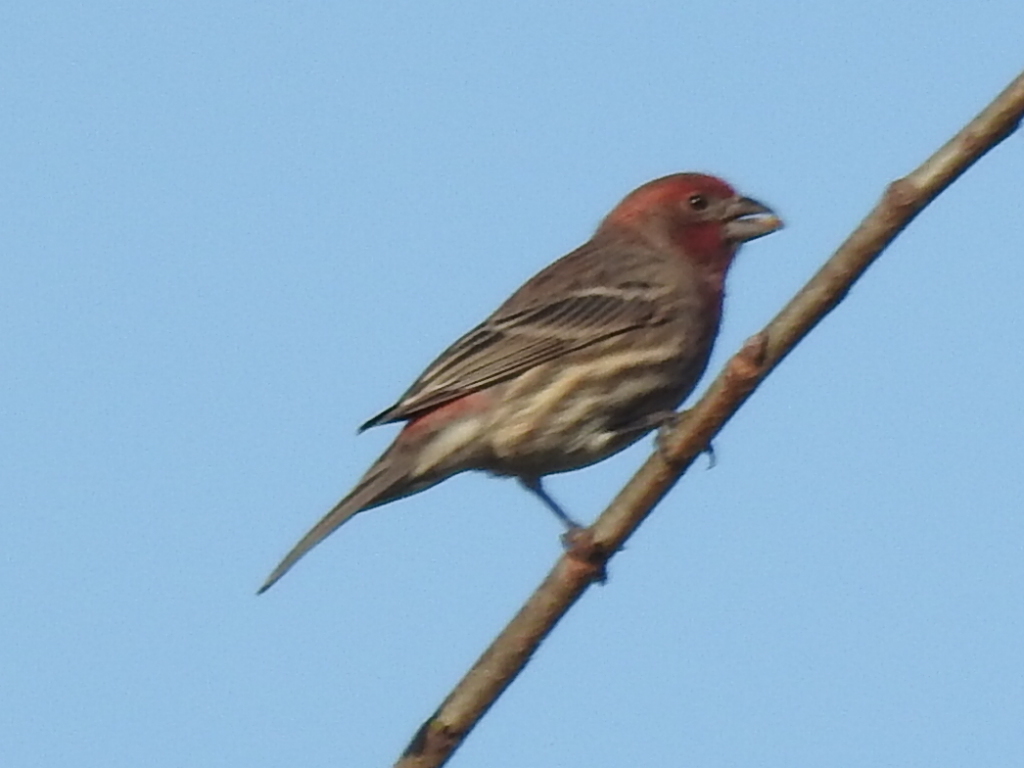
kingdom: Animalia
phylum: Chordata
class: Aves
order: Passeriformes
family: Fringillidae
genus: Haemorhous
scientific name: Haemorhous mexicanus
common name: House finch
